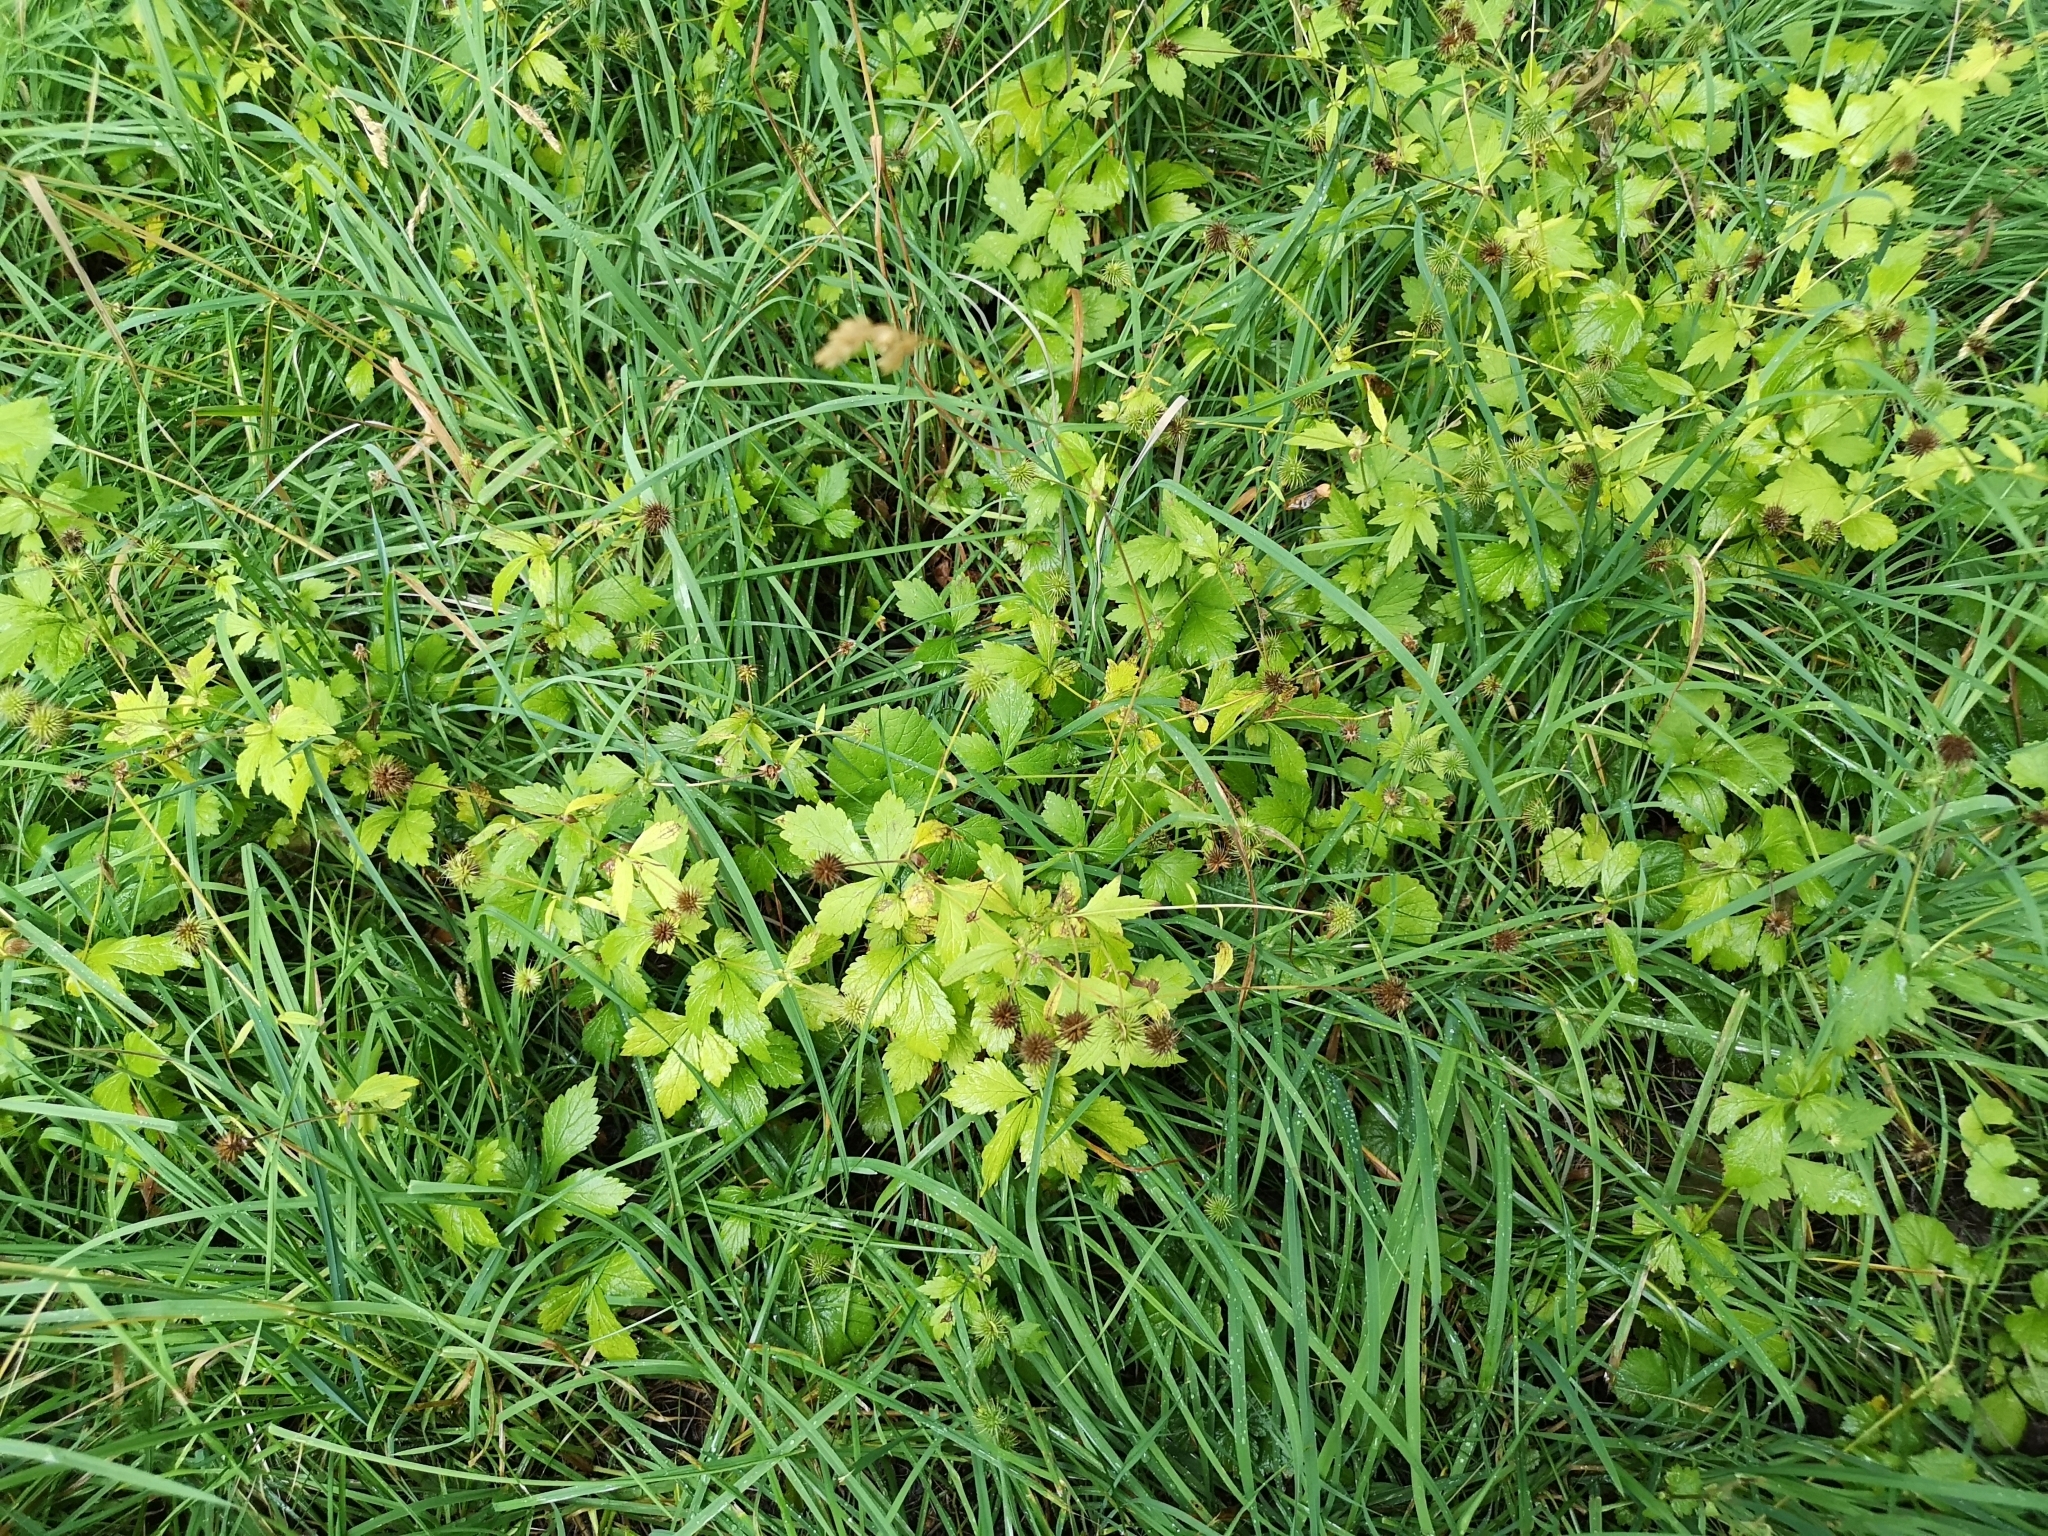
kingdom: Plantae
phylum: Tracheophyta
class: Magnoliopsida
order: Rosales
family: Rosaceae
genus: Geum
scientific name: Geum urbanum
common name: Wood avens
